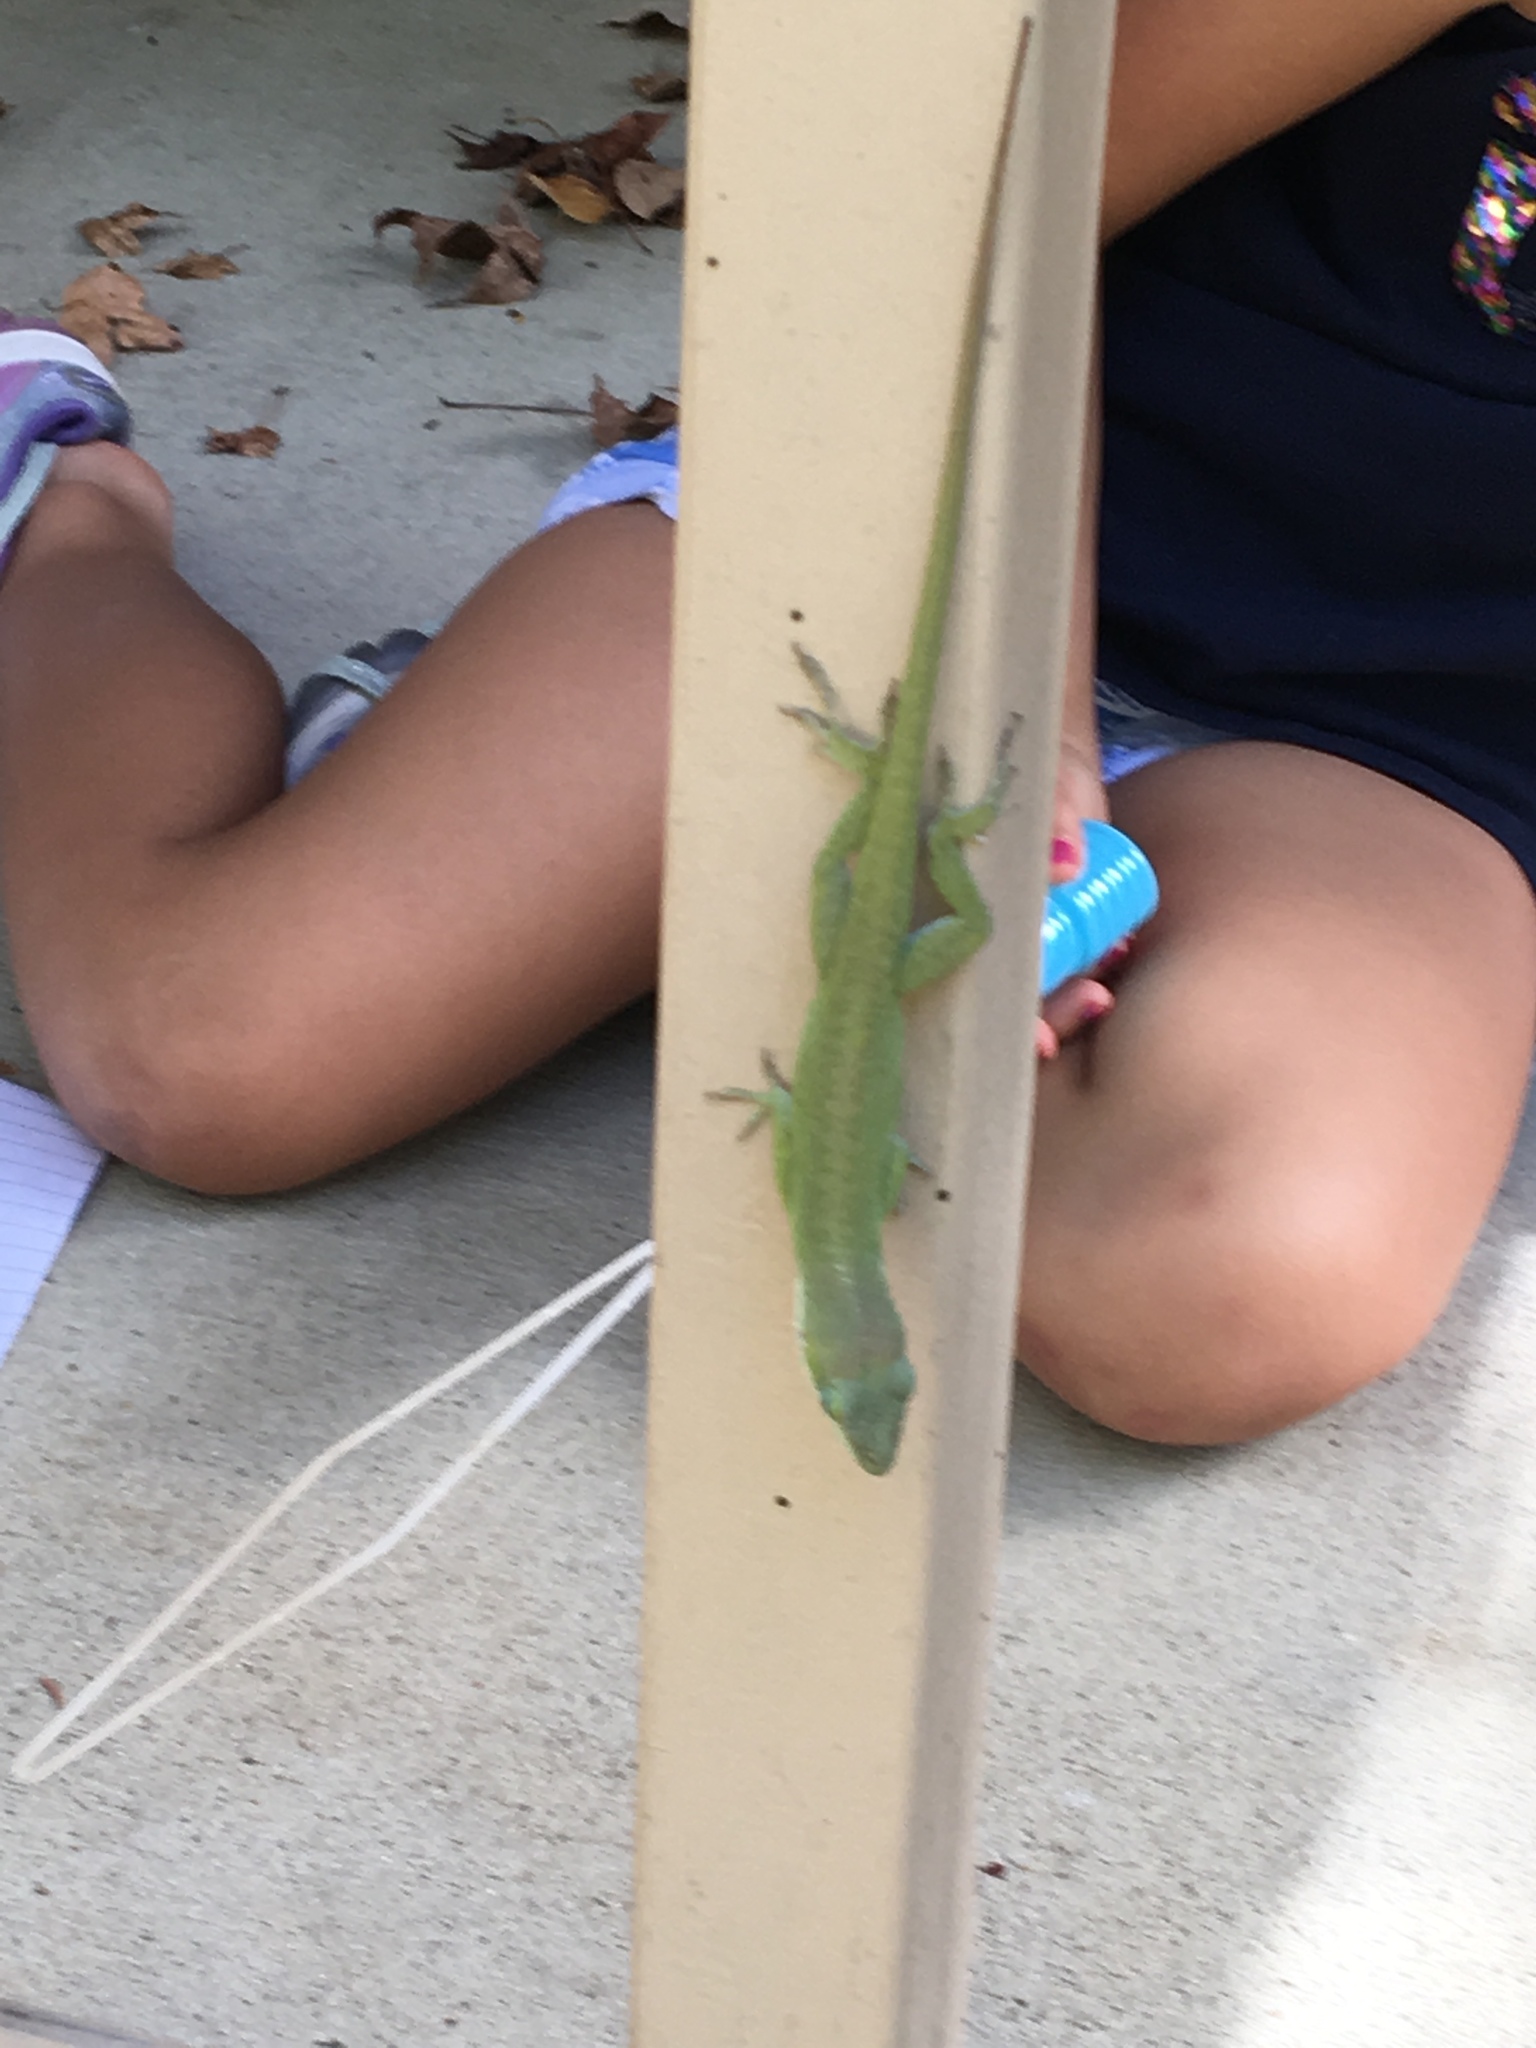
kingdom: Animalia
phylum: Chordata
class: Squamata
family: Dactyloidae
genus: Anolis
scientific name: Anolis carolinensis
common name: Green anole
